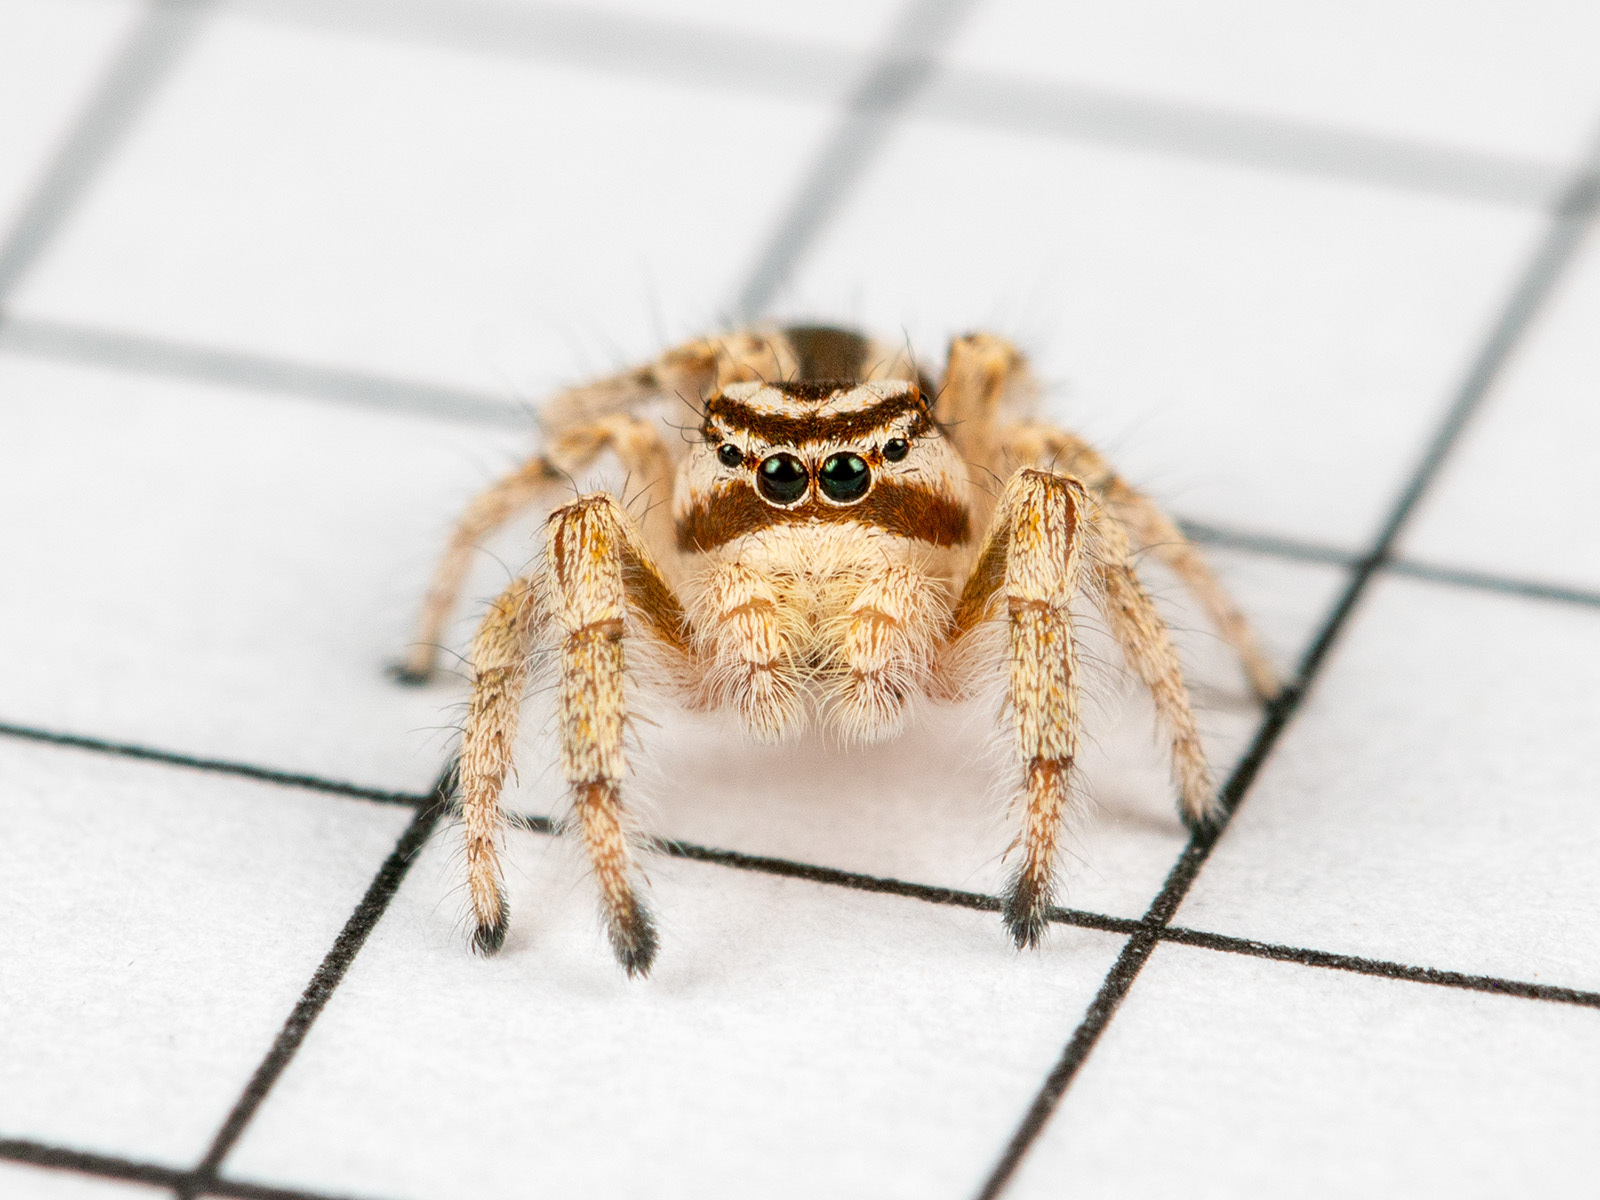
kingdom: Animalia
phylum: Arthropoda
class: Arachnida
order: Araneae
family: Salticidae
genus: Pseudomogrus
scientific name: Pseudomogrus zhilgaensis
